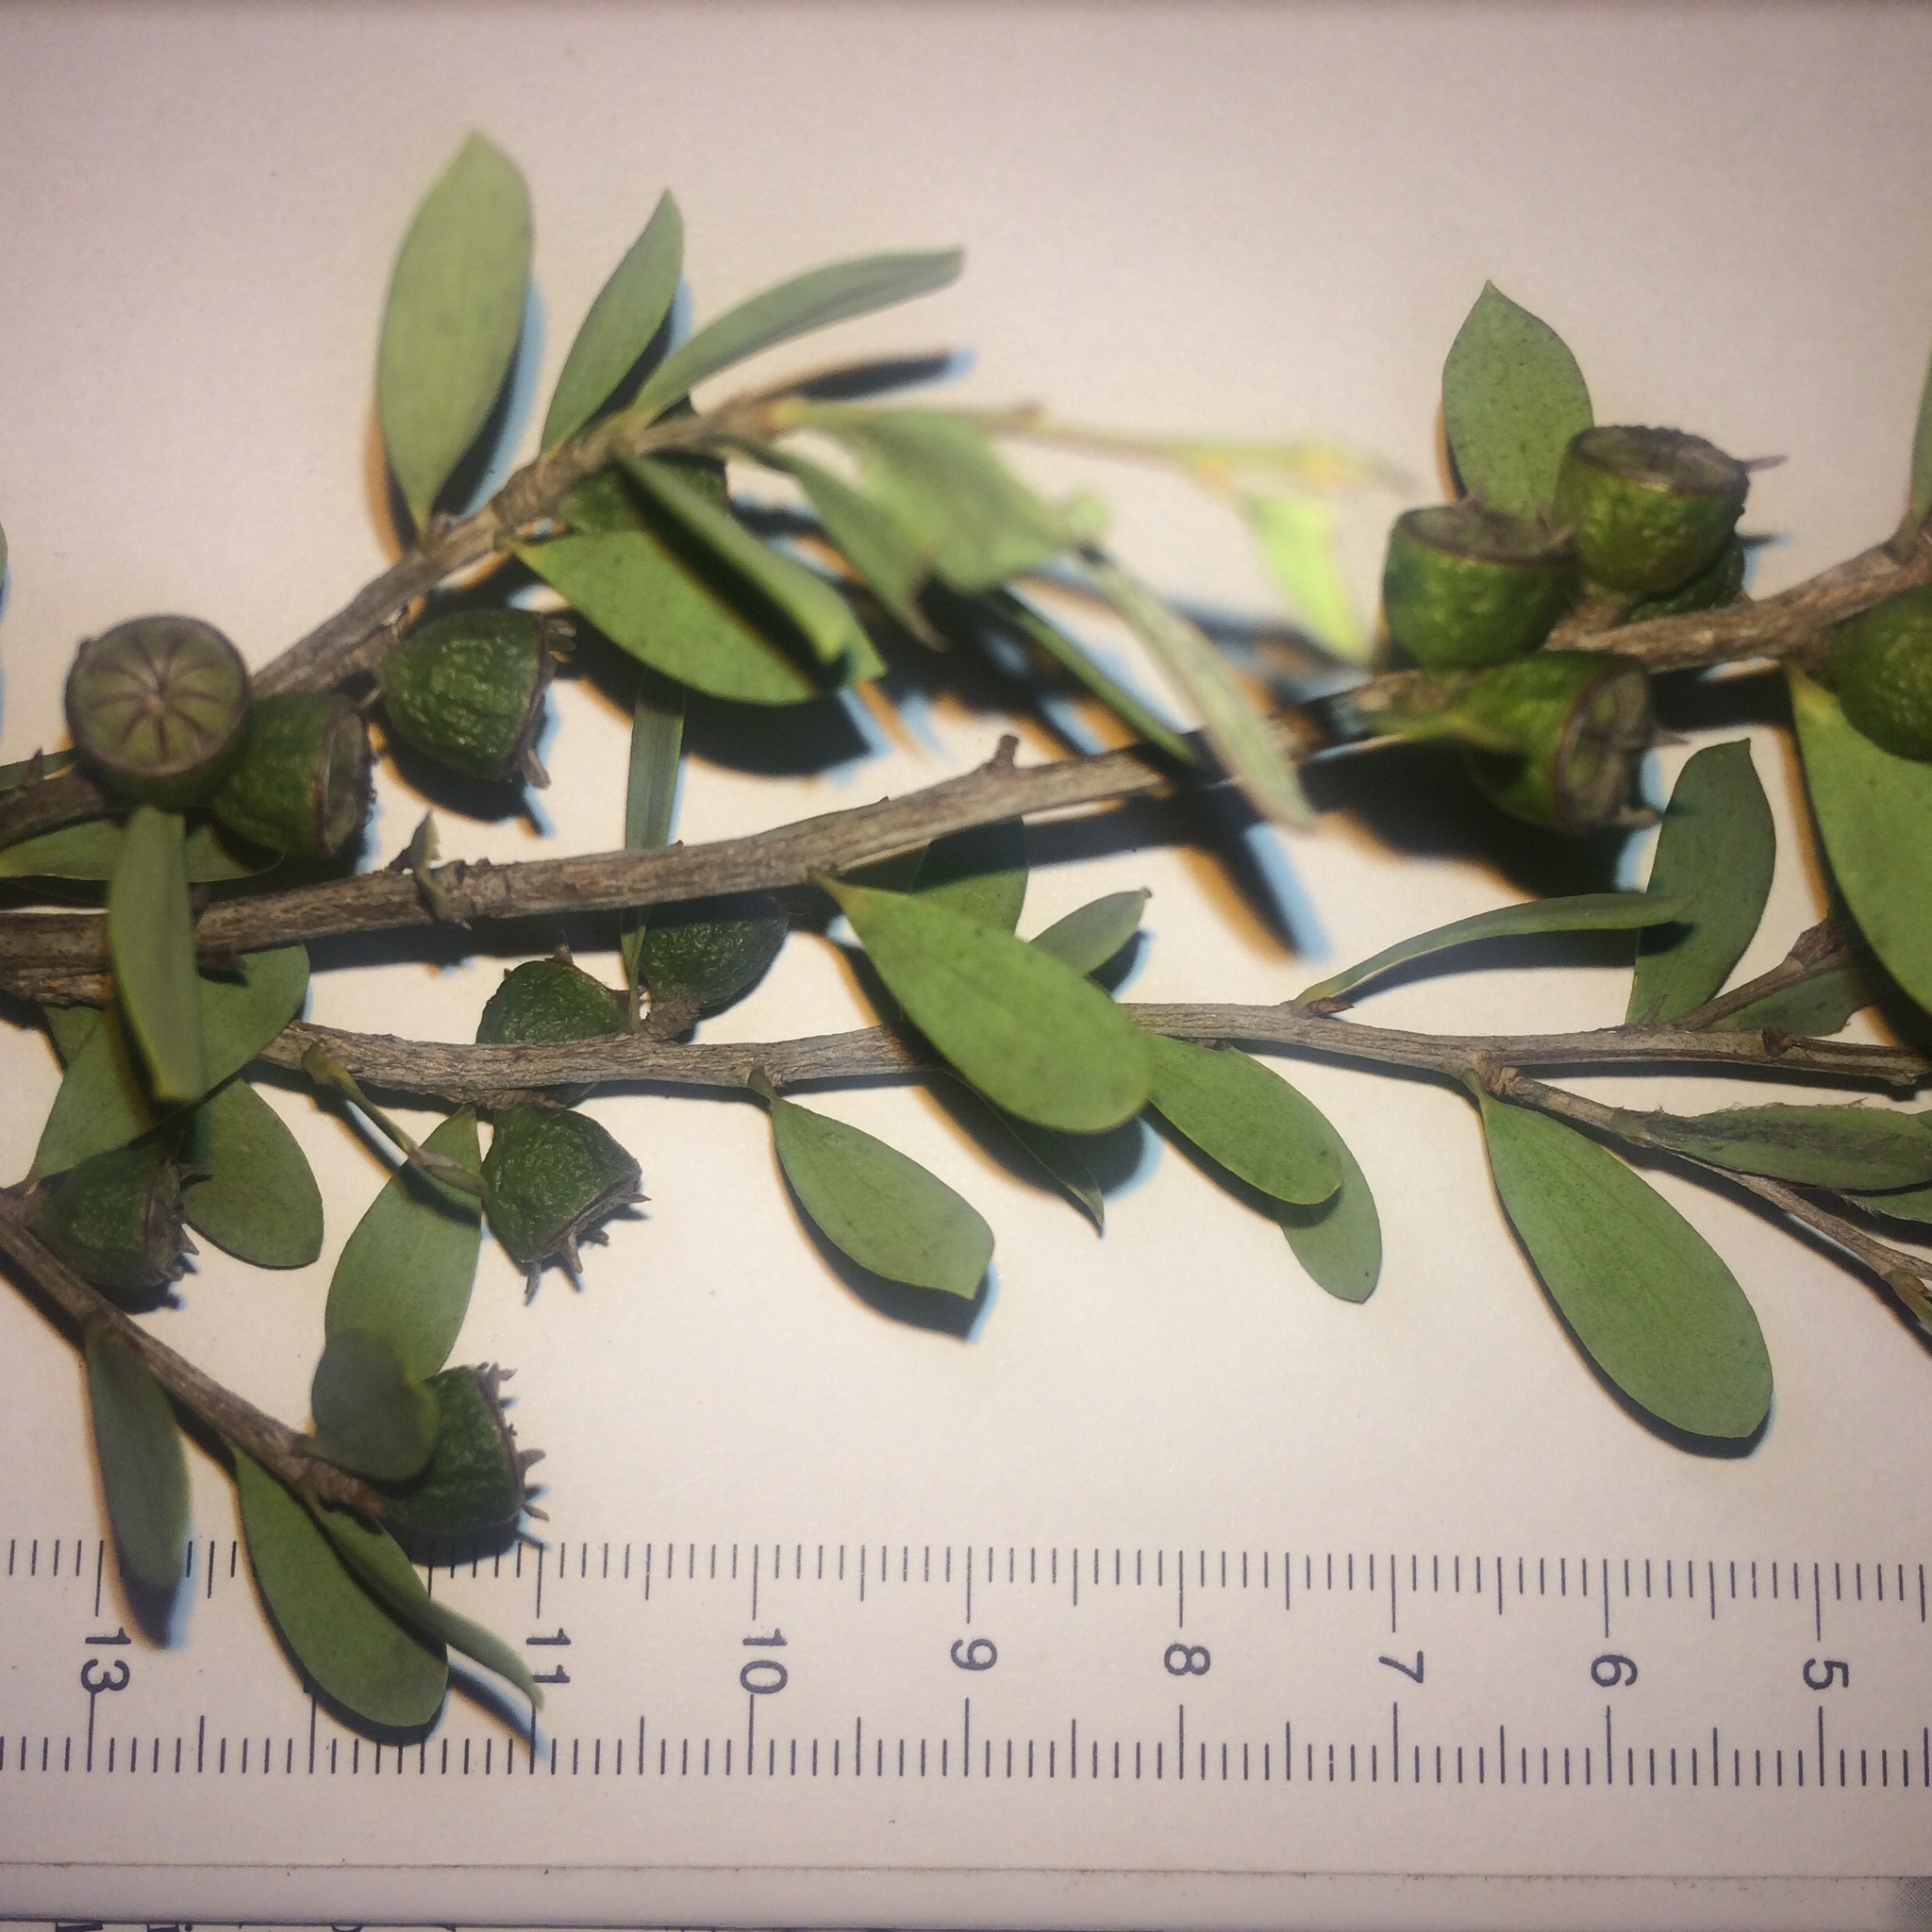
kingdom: Plantae
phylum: Tracheophyta
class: Magnoliopsida
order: Myrtales
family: Myrtaceae
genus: Leptospermum
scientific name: Leptospermum laevigatum
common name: Australian teatree
